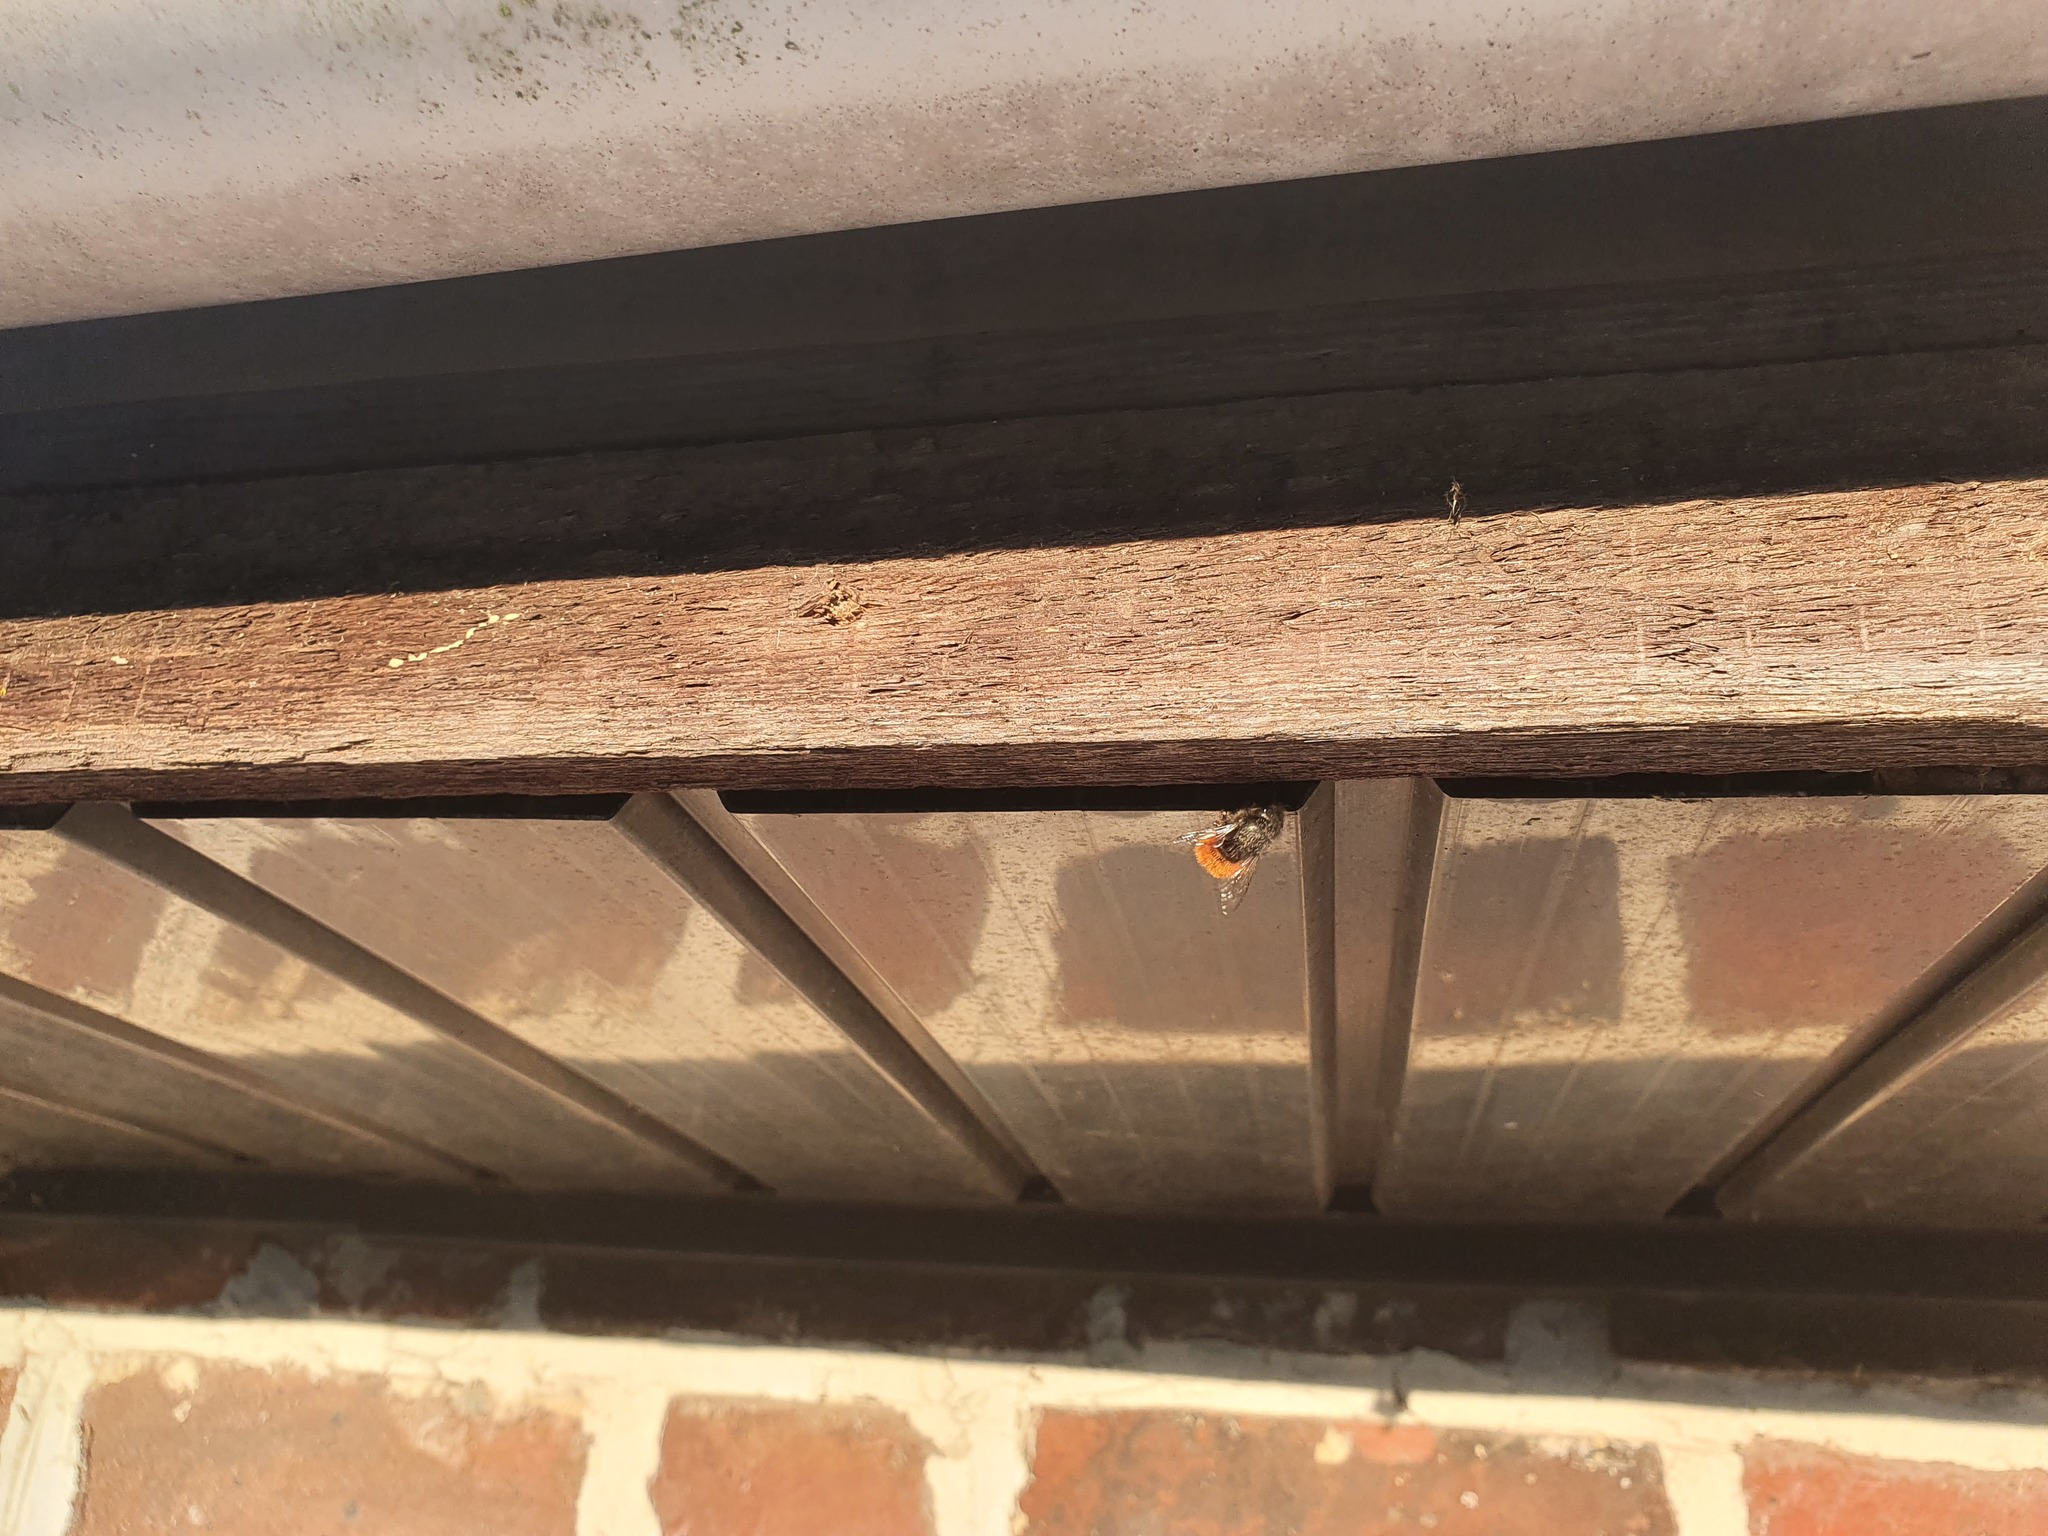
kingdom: Animalia
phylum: Arthropoda
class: Insecta
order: Hymenoptera
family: Megachilidae
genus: Osmia
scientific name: Osmia cornuta
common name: Mason bee
